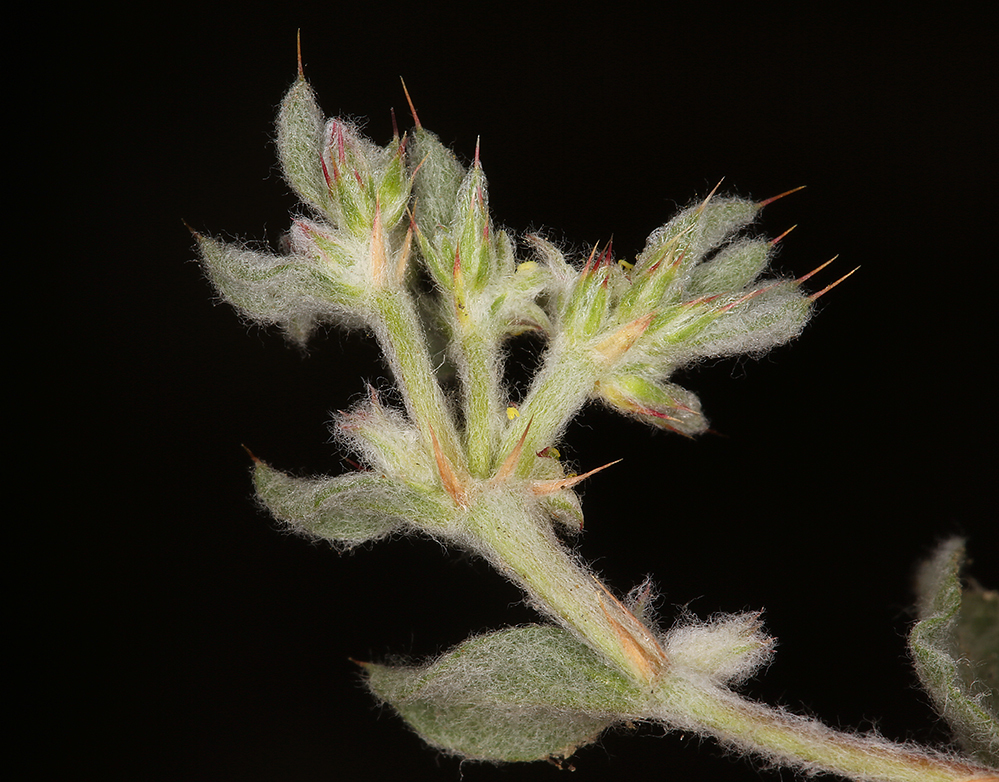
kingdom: Plantae
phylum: Tracheophyta
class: Magnoliopsida
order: Caryophyllales
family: Polygonaceae
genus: Hollisteria
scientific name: Hollisteria lanata
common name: False spike-flower
